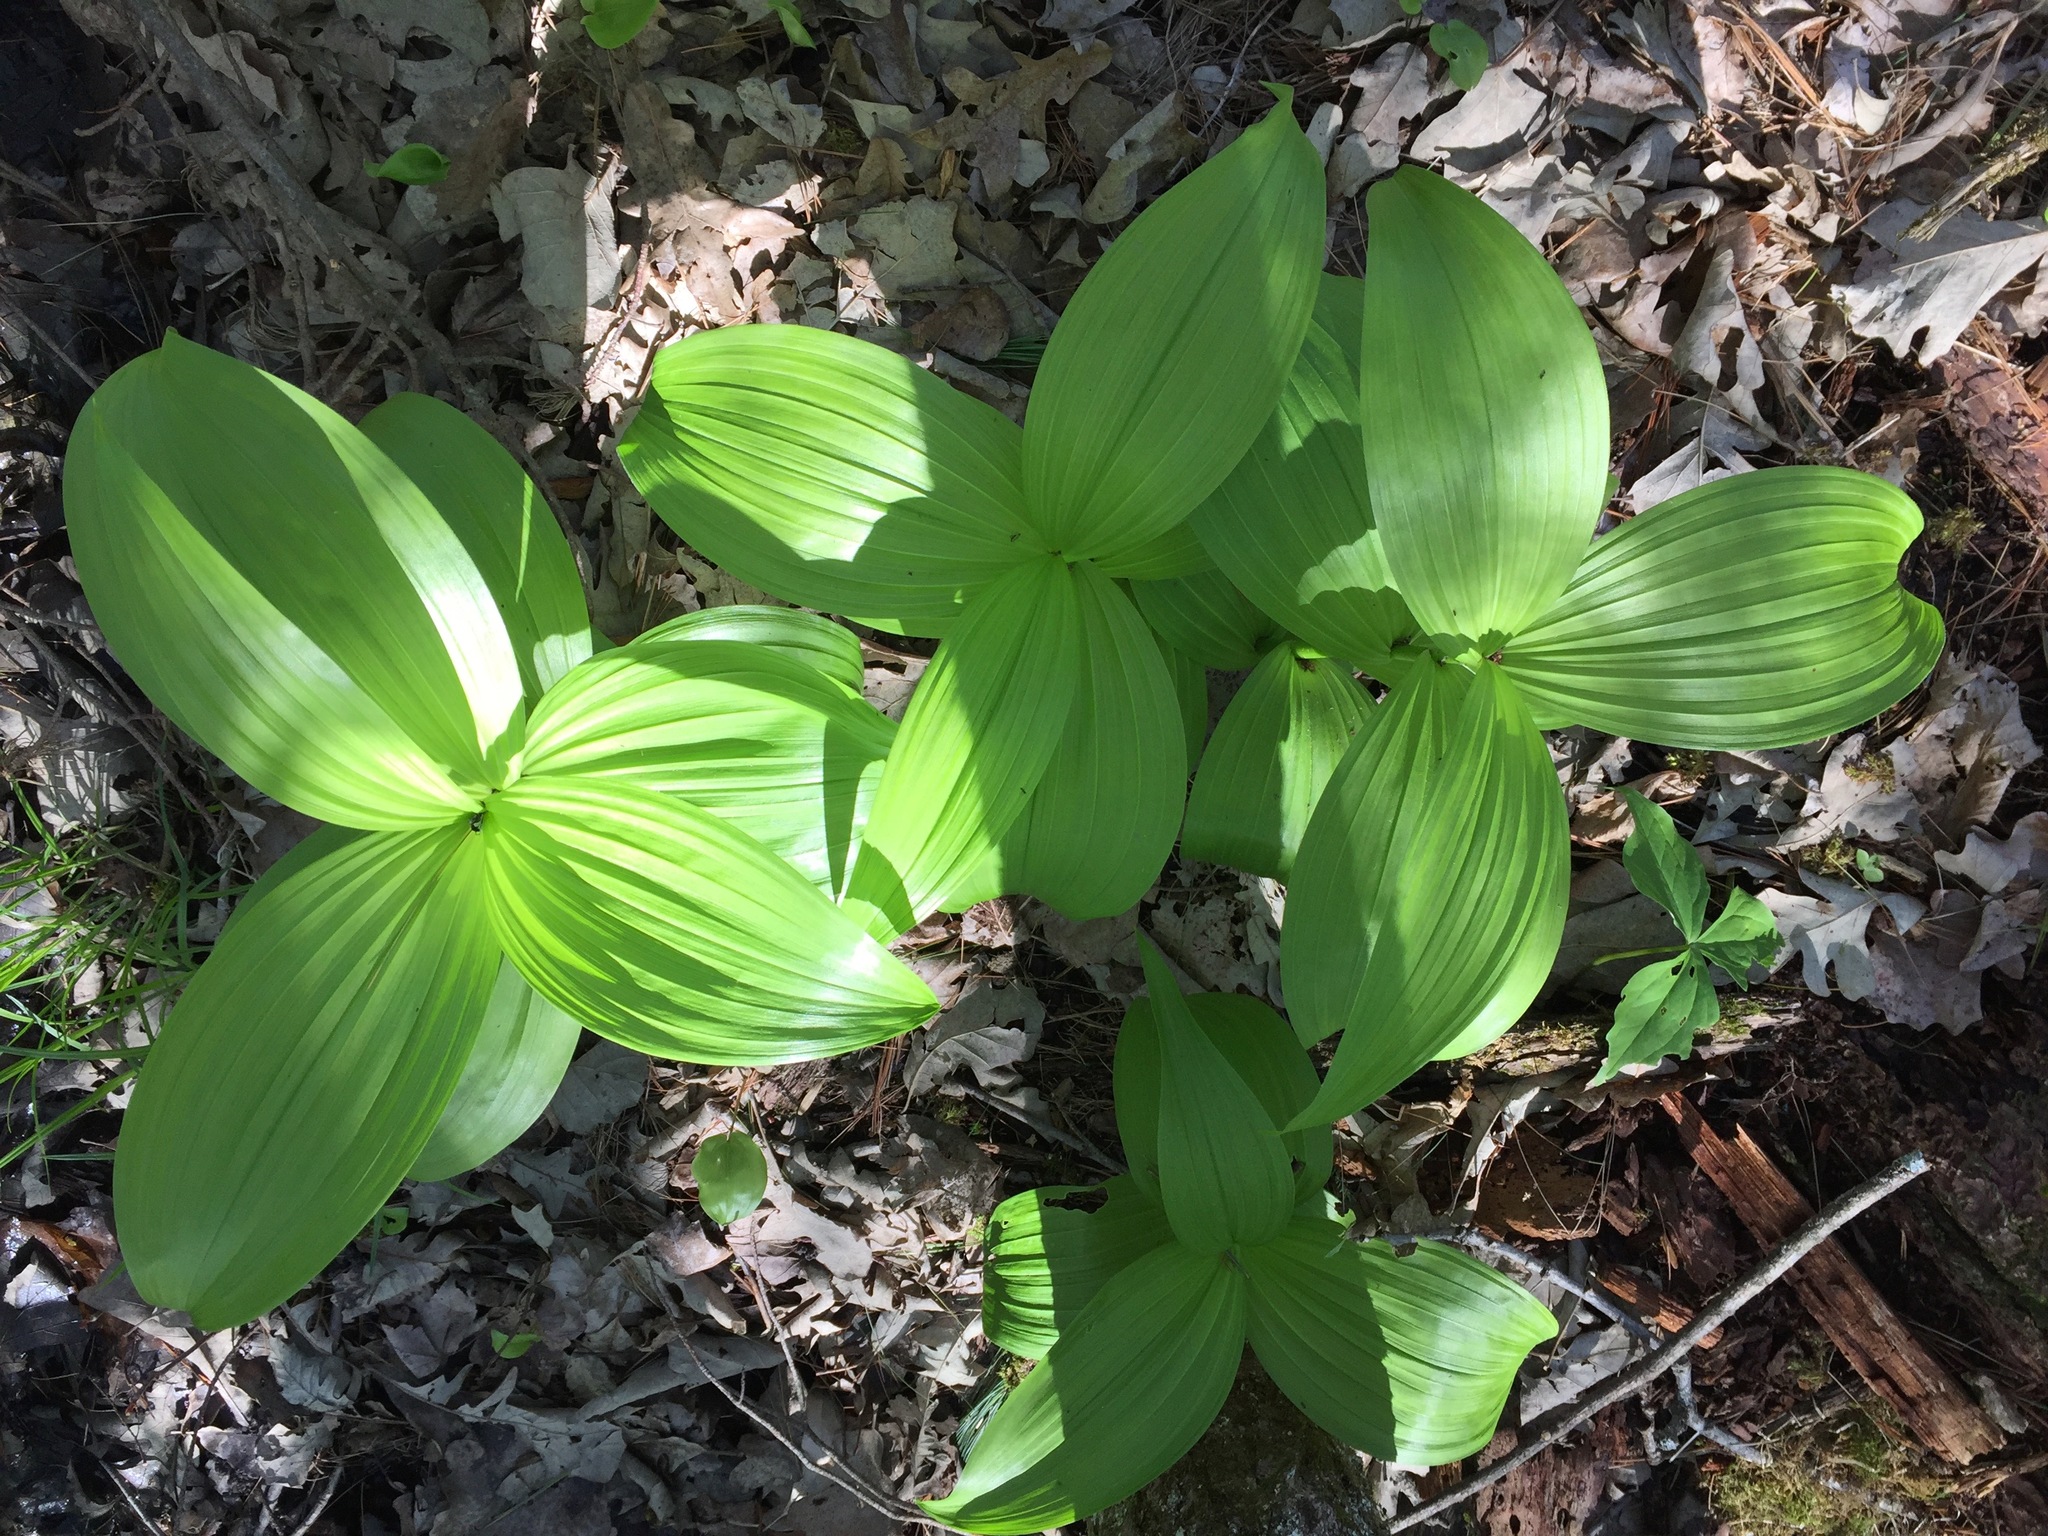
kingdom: Plantae
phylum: Tracheophyta
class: Liliopsida
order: Liliales
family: Melanthiaceae
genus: Veratrum
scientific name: Veratrum viride
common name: American false hellebore
